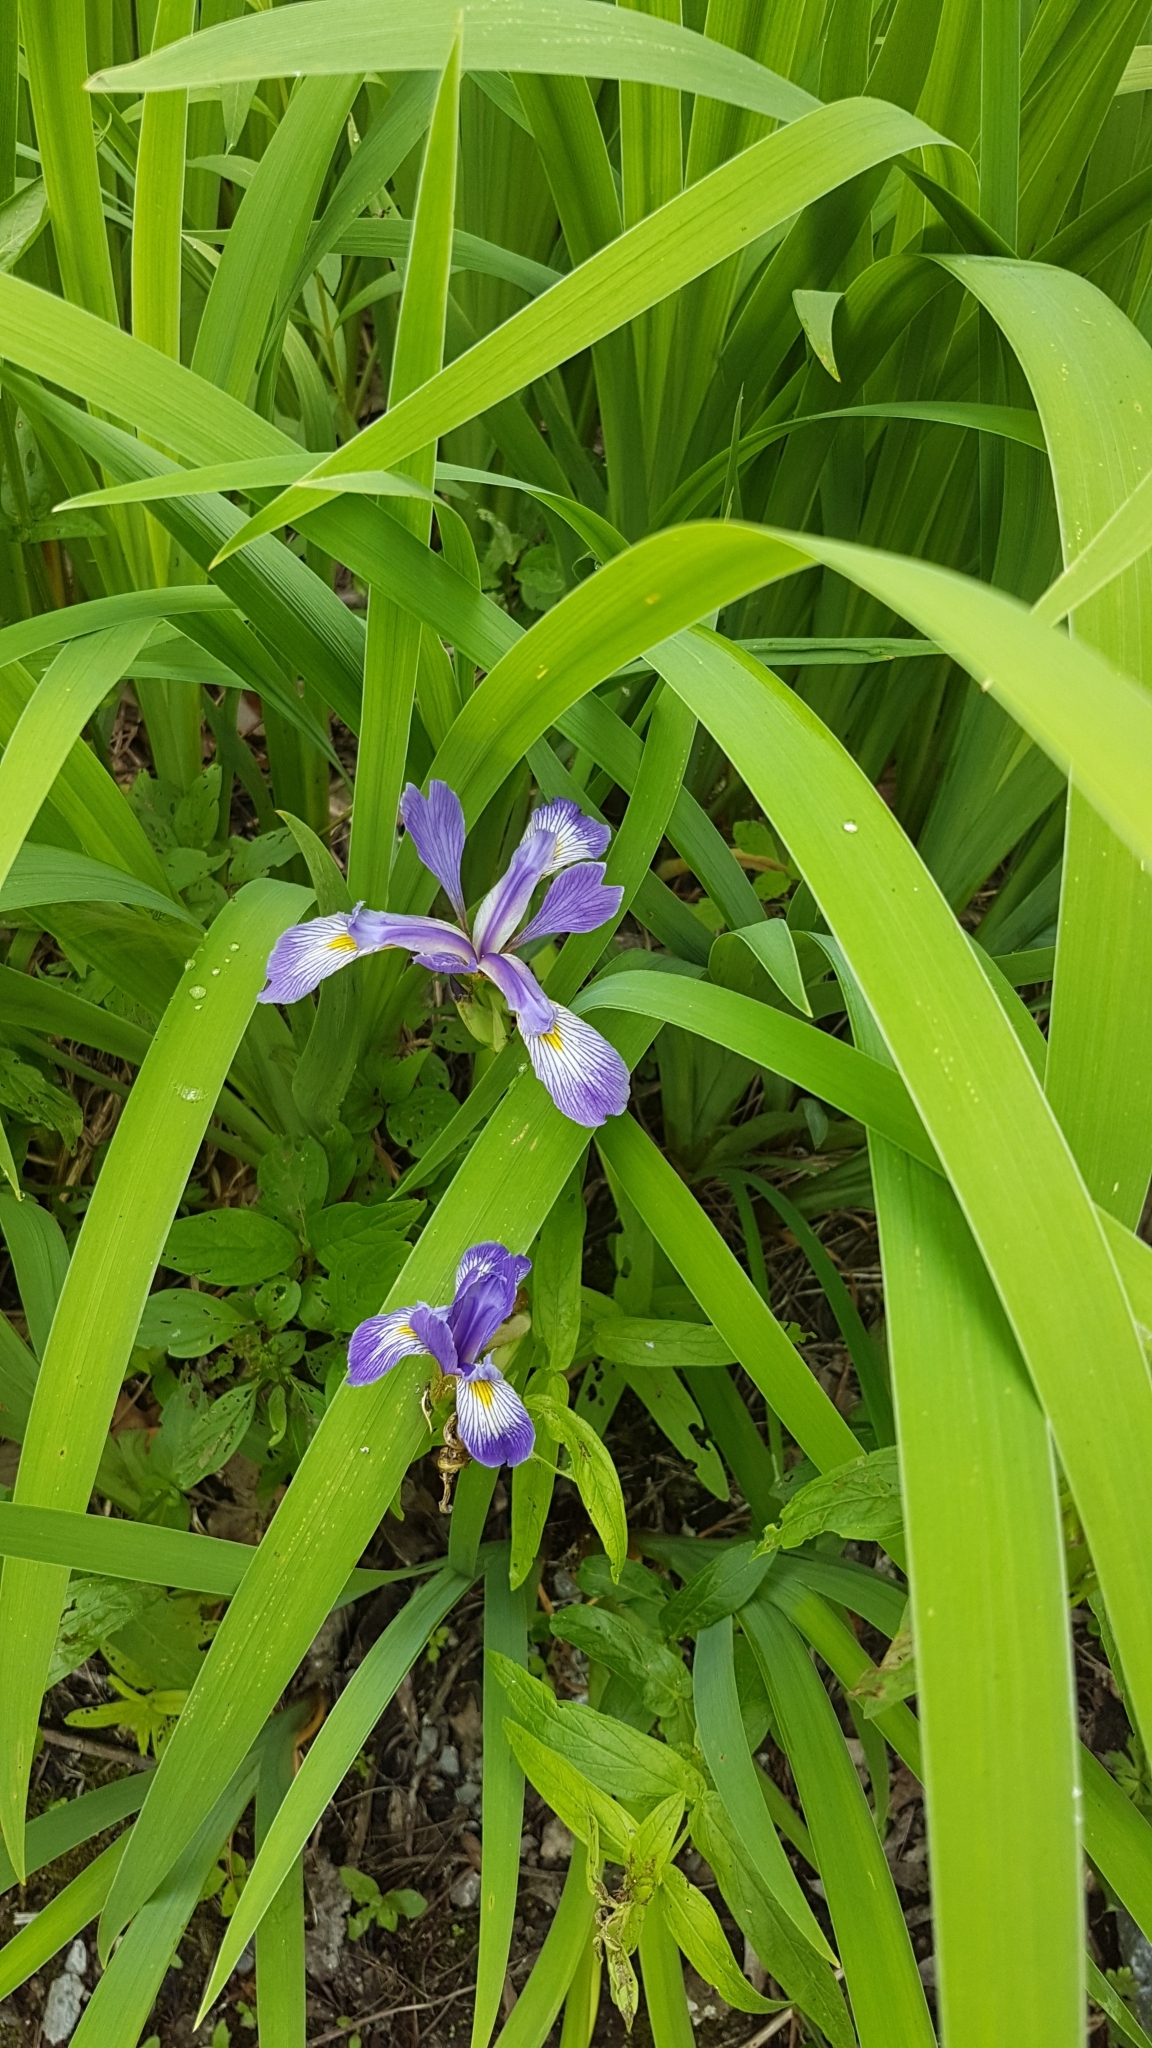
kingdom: Plantae
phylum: Tracheophyta
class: Liliopsida
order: Asparagales
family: Iridaceae
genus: Iris
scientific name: Iris virginica
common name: Southern blue flag
